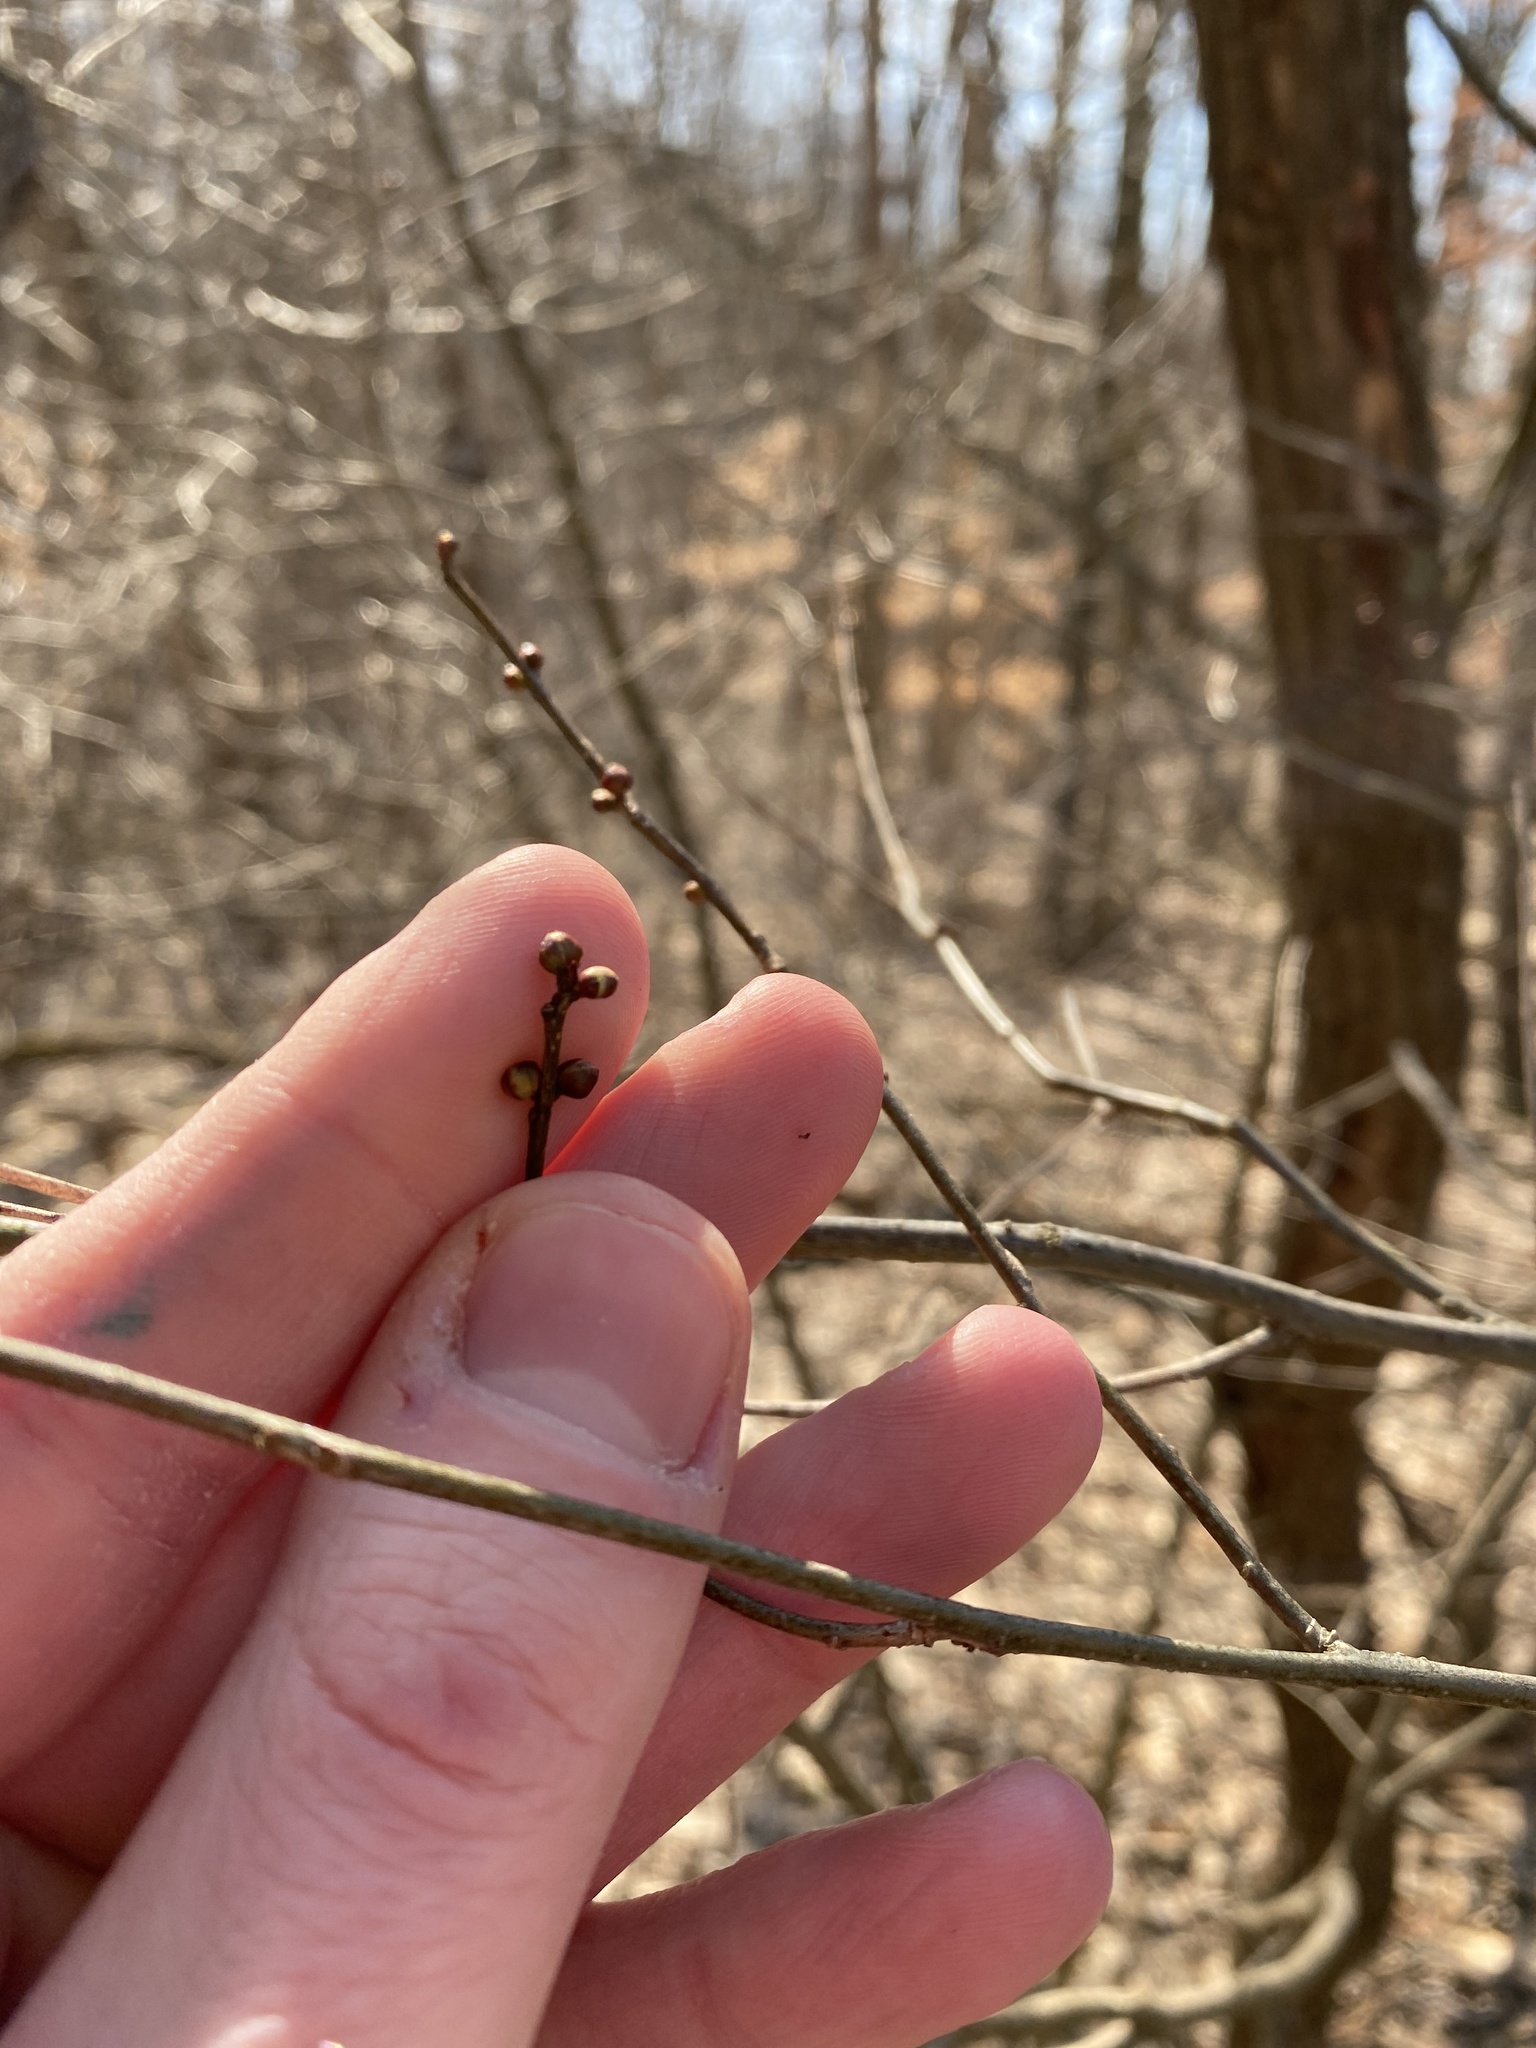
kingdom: Plantae
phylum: Tracheophyta
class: Magnoliopsida
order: Laurales
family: Lauraceae
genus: Lindera
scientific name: Lindera benzoin
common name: Spicebush
